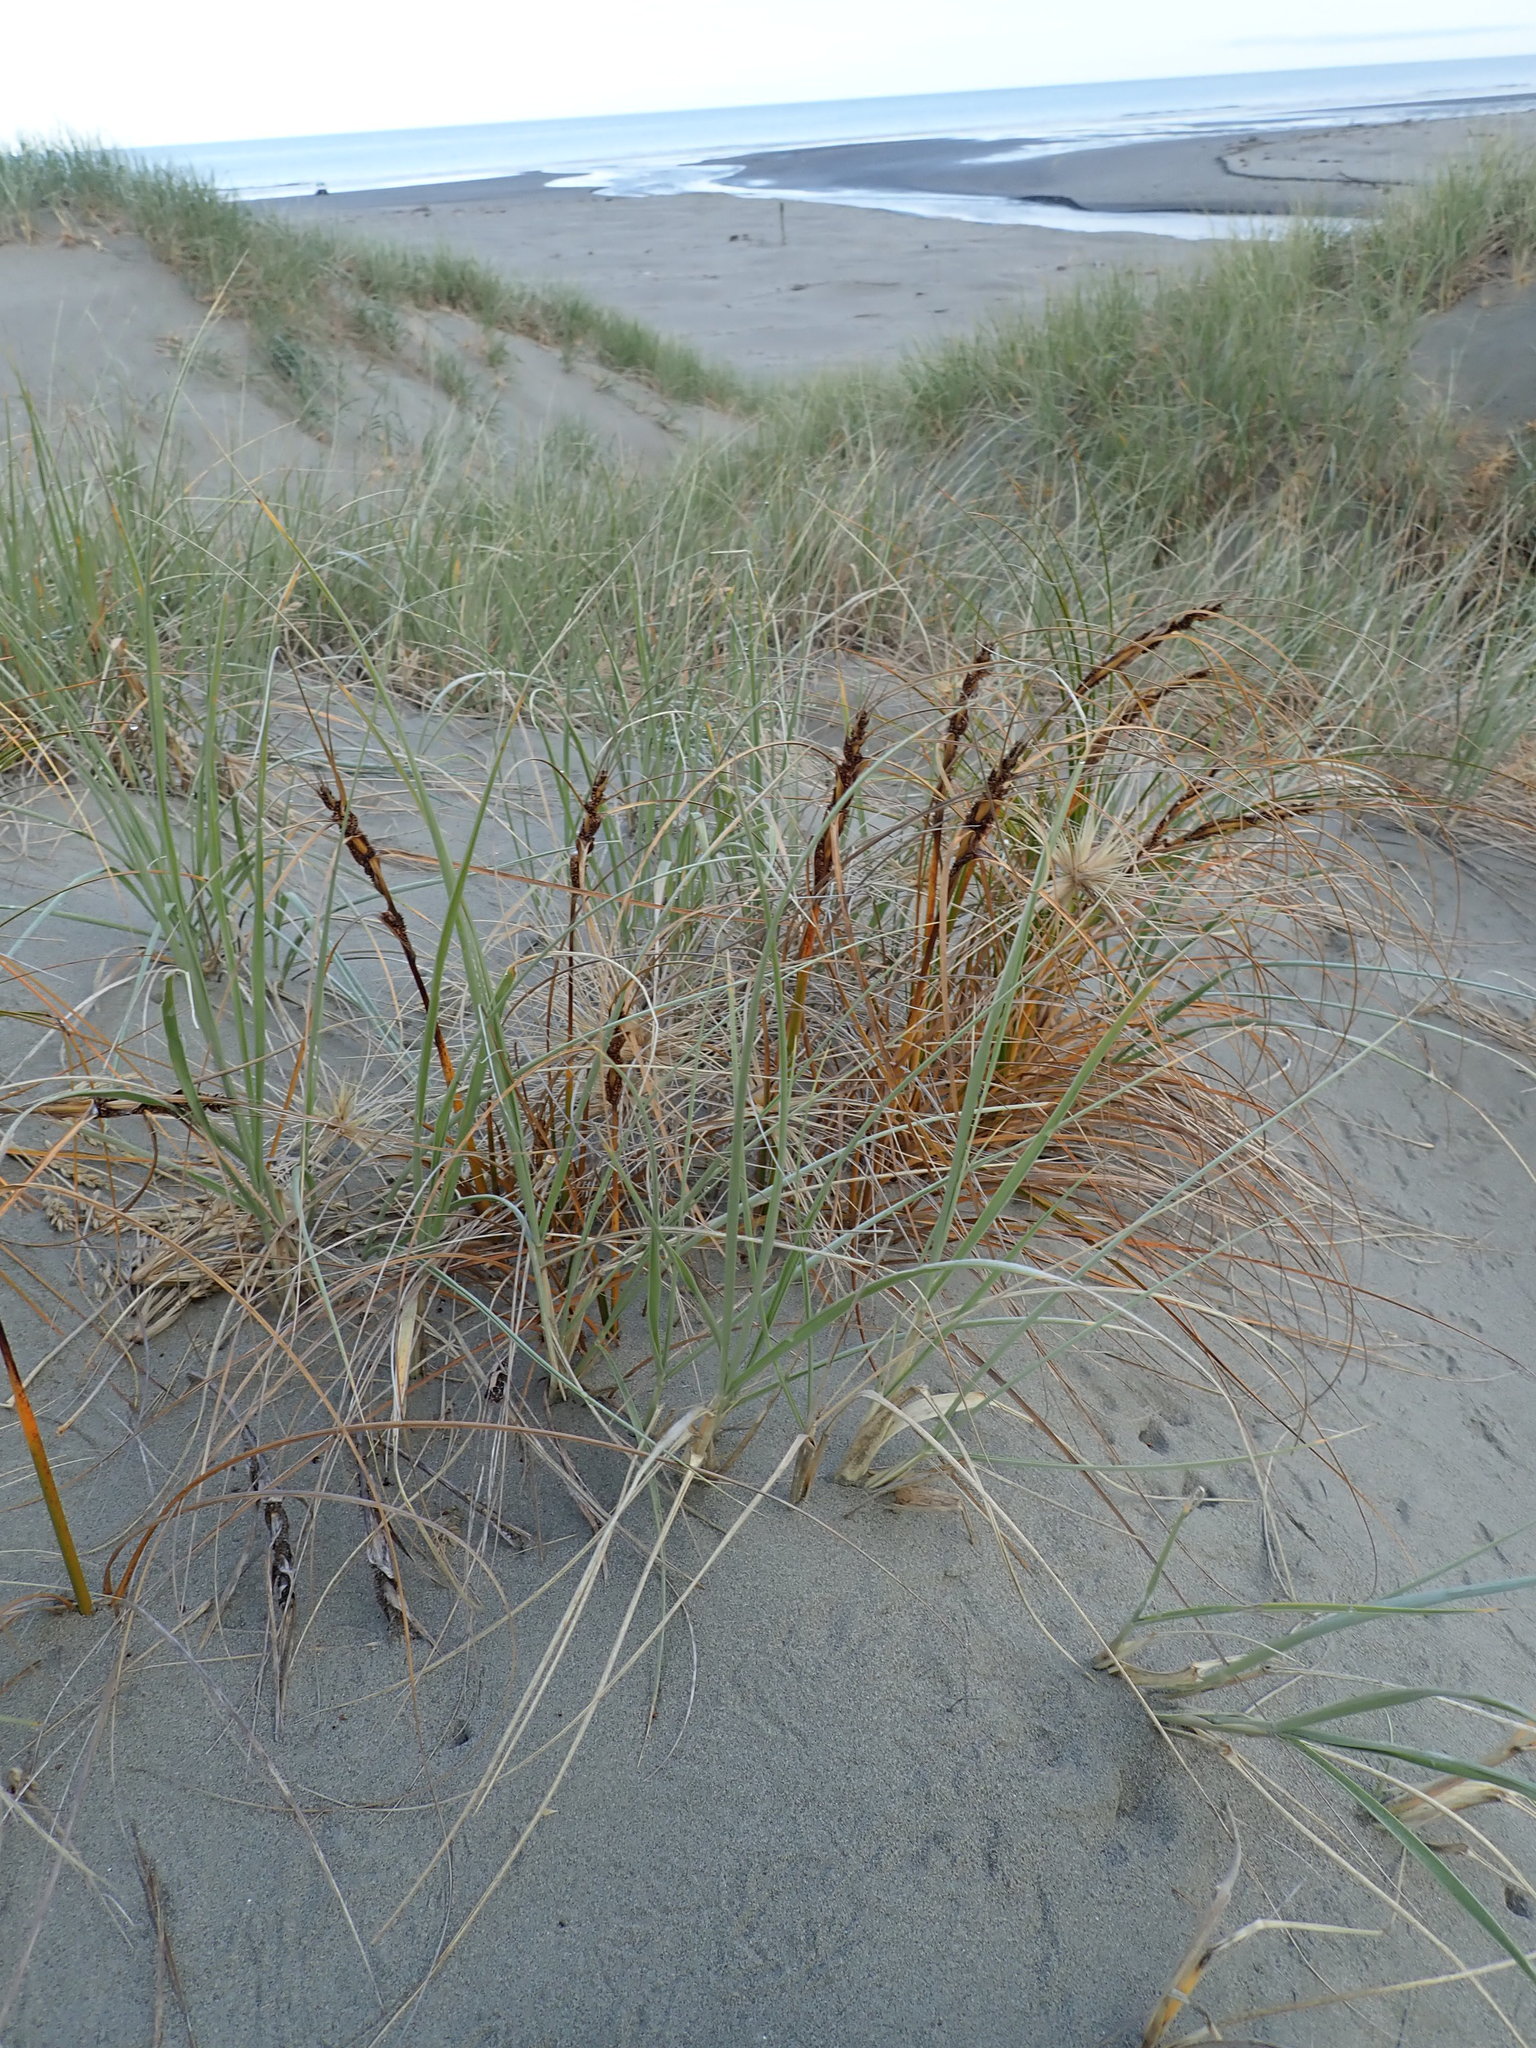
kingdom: Plantae
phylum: Tracheophyta
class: Liliopsida
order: Poales
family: Cyperaceae
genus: Ficinia
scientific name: Ficinia spiralis
